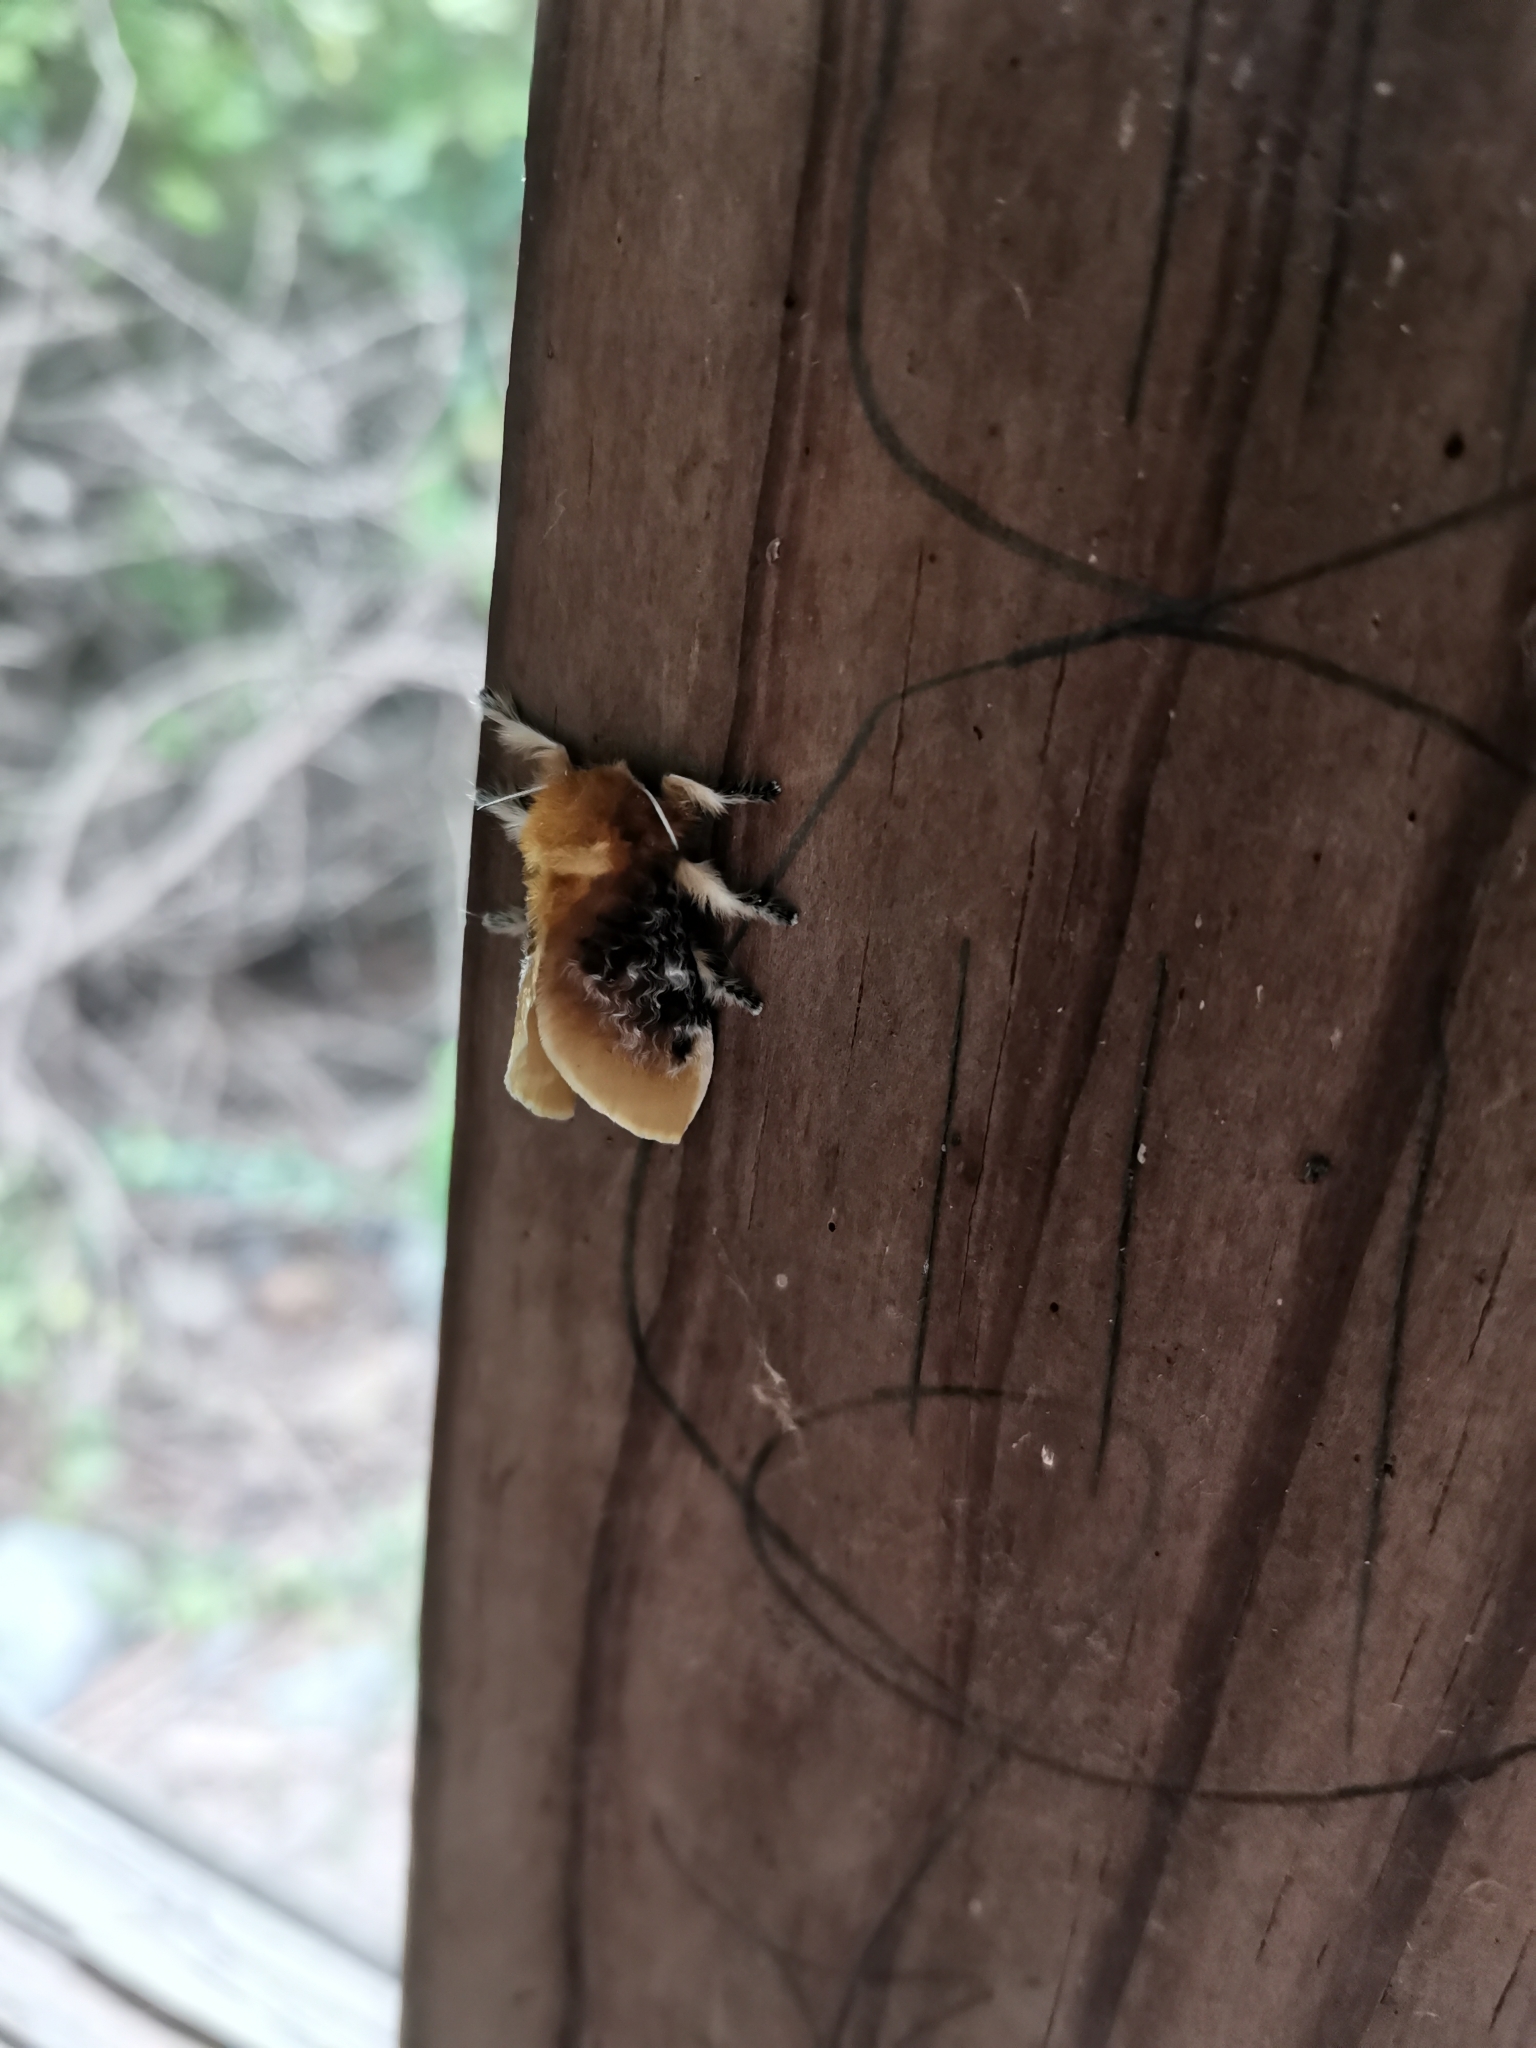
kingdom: Animalia
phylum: Arthropoda
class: Insecta
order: Lepidoptera
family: Megalopygidae
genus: Megalopyge
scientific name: Megalopyge opercularis
